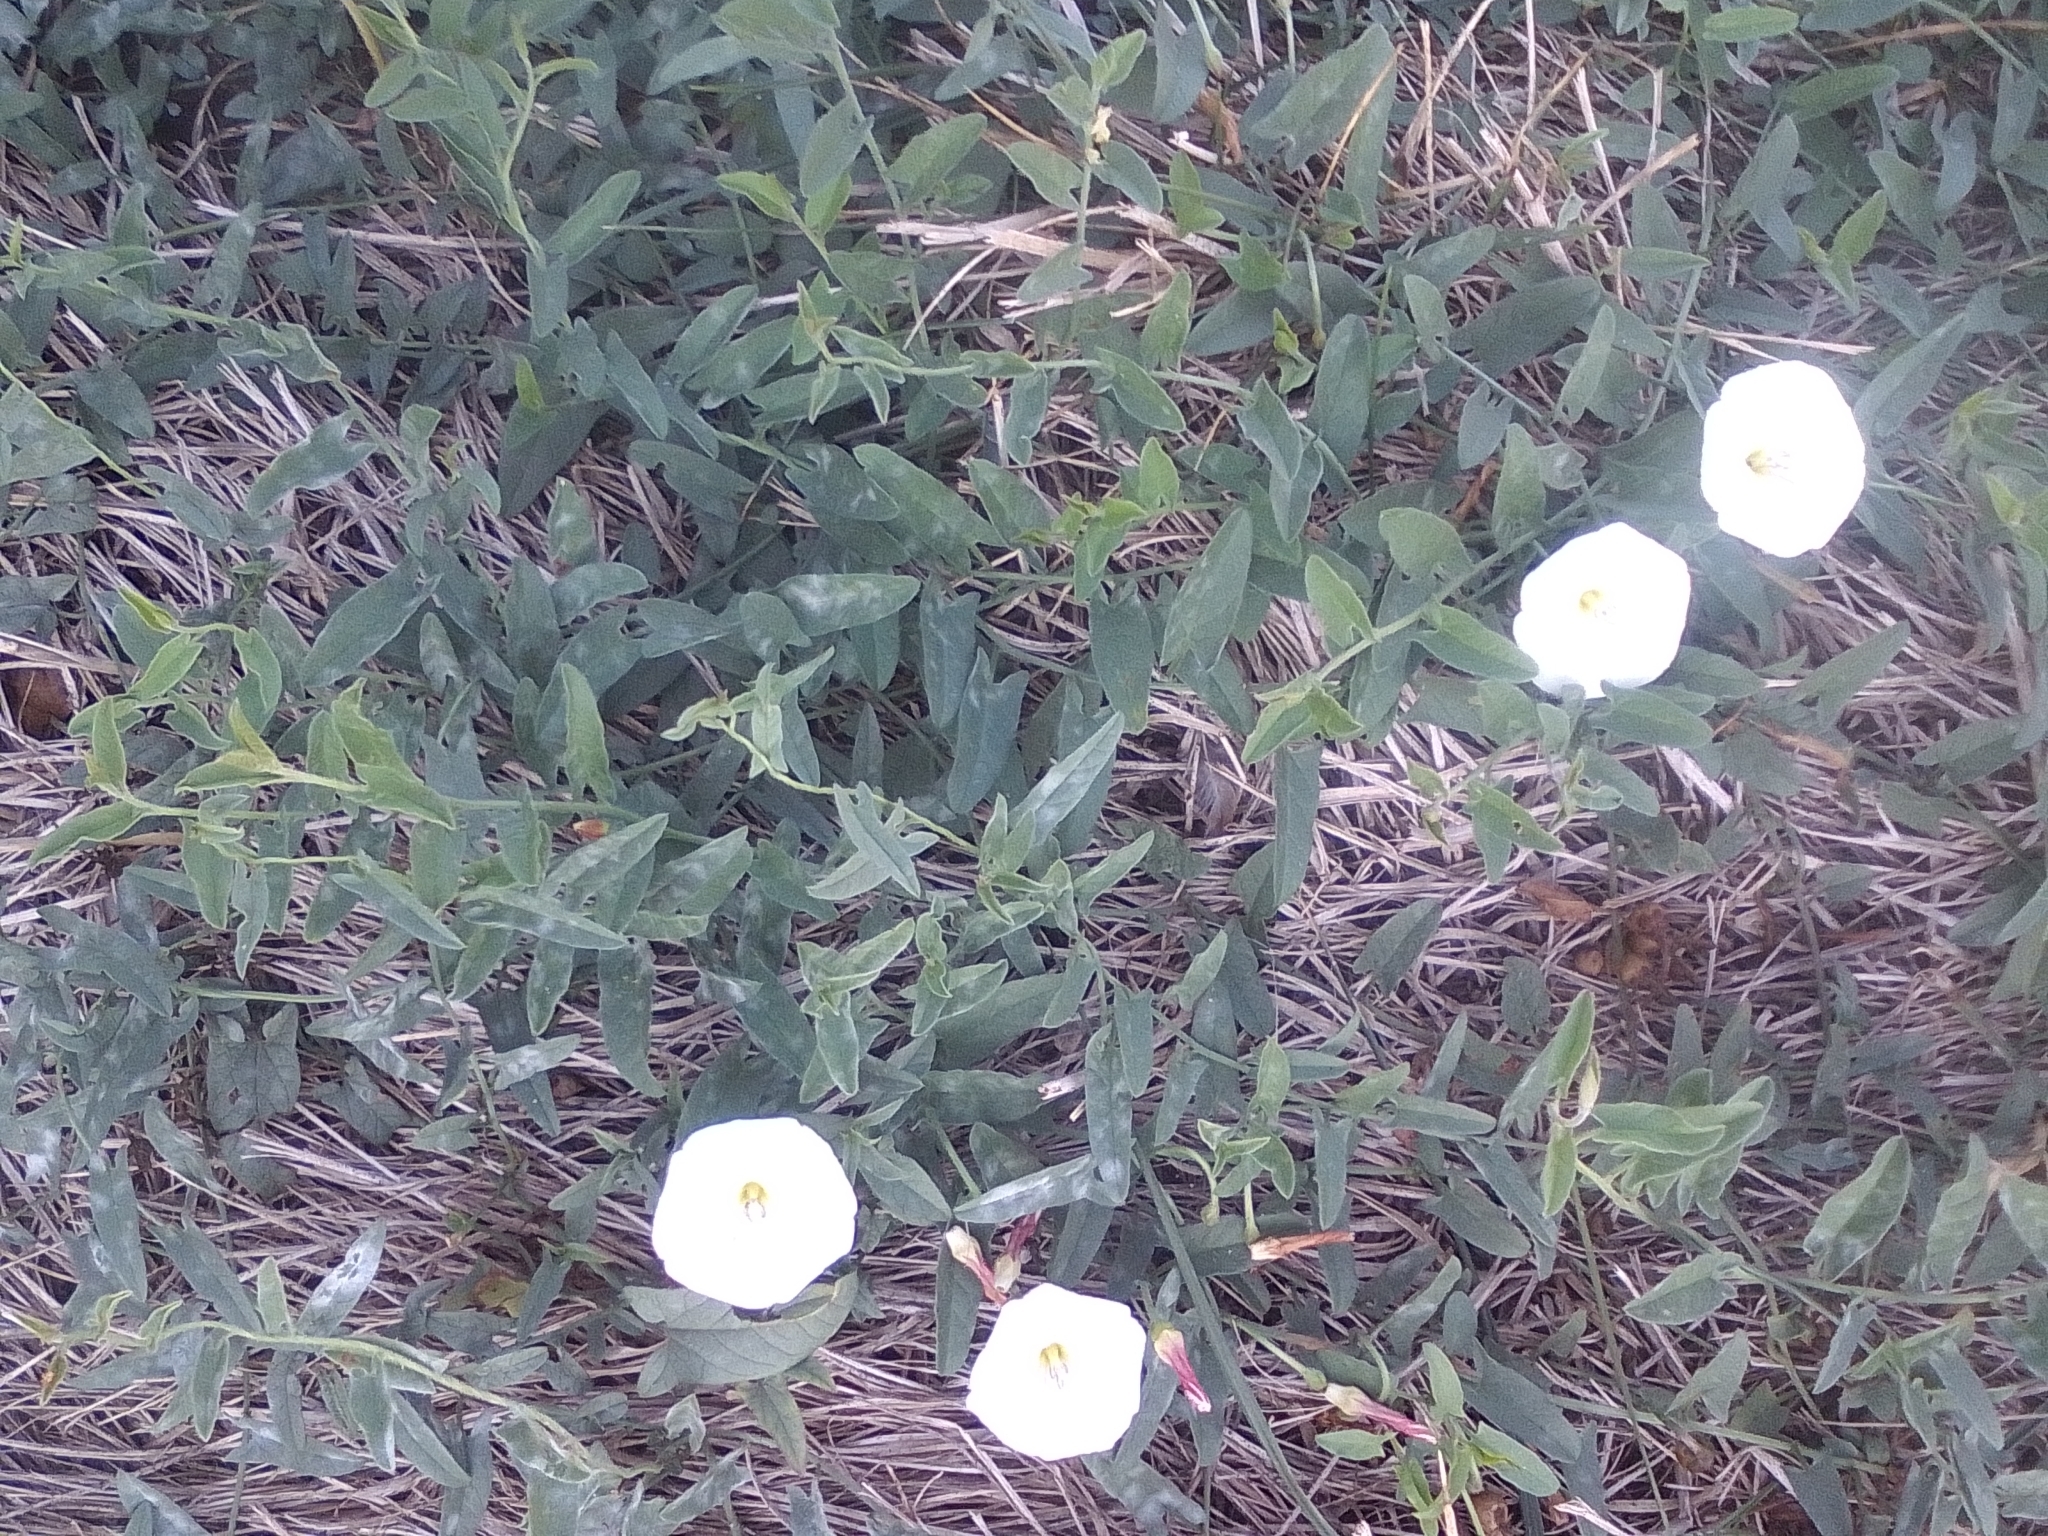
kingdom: Plantae
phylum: Tracheophyta
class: Magnoliopsida
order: Solanales
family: Convolvulaceae
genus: Convolvulus
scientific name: Convolvulus arvensis
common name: Field bindweed
